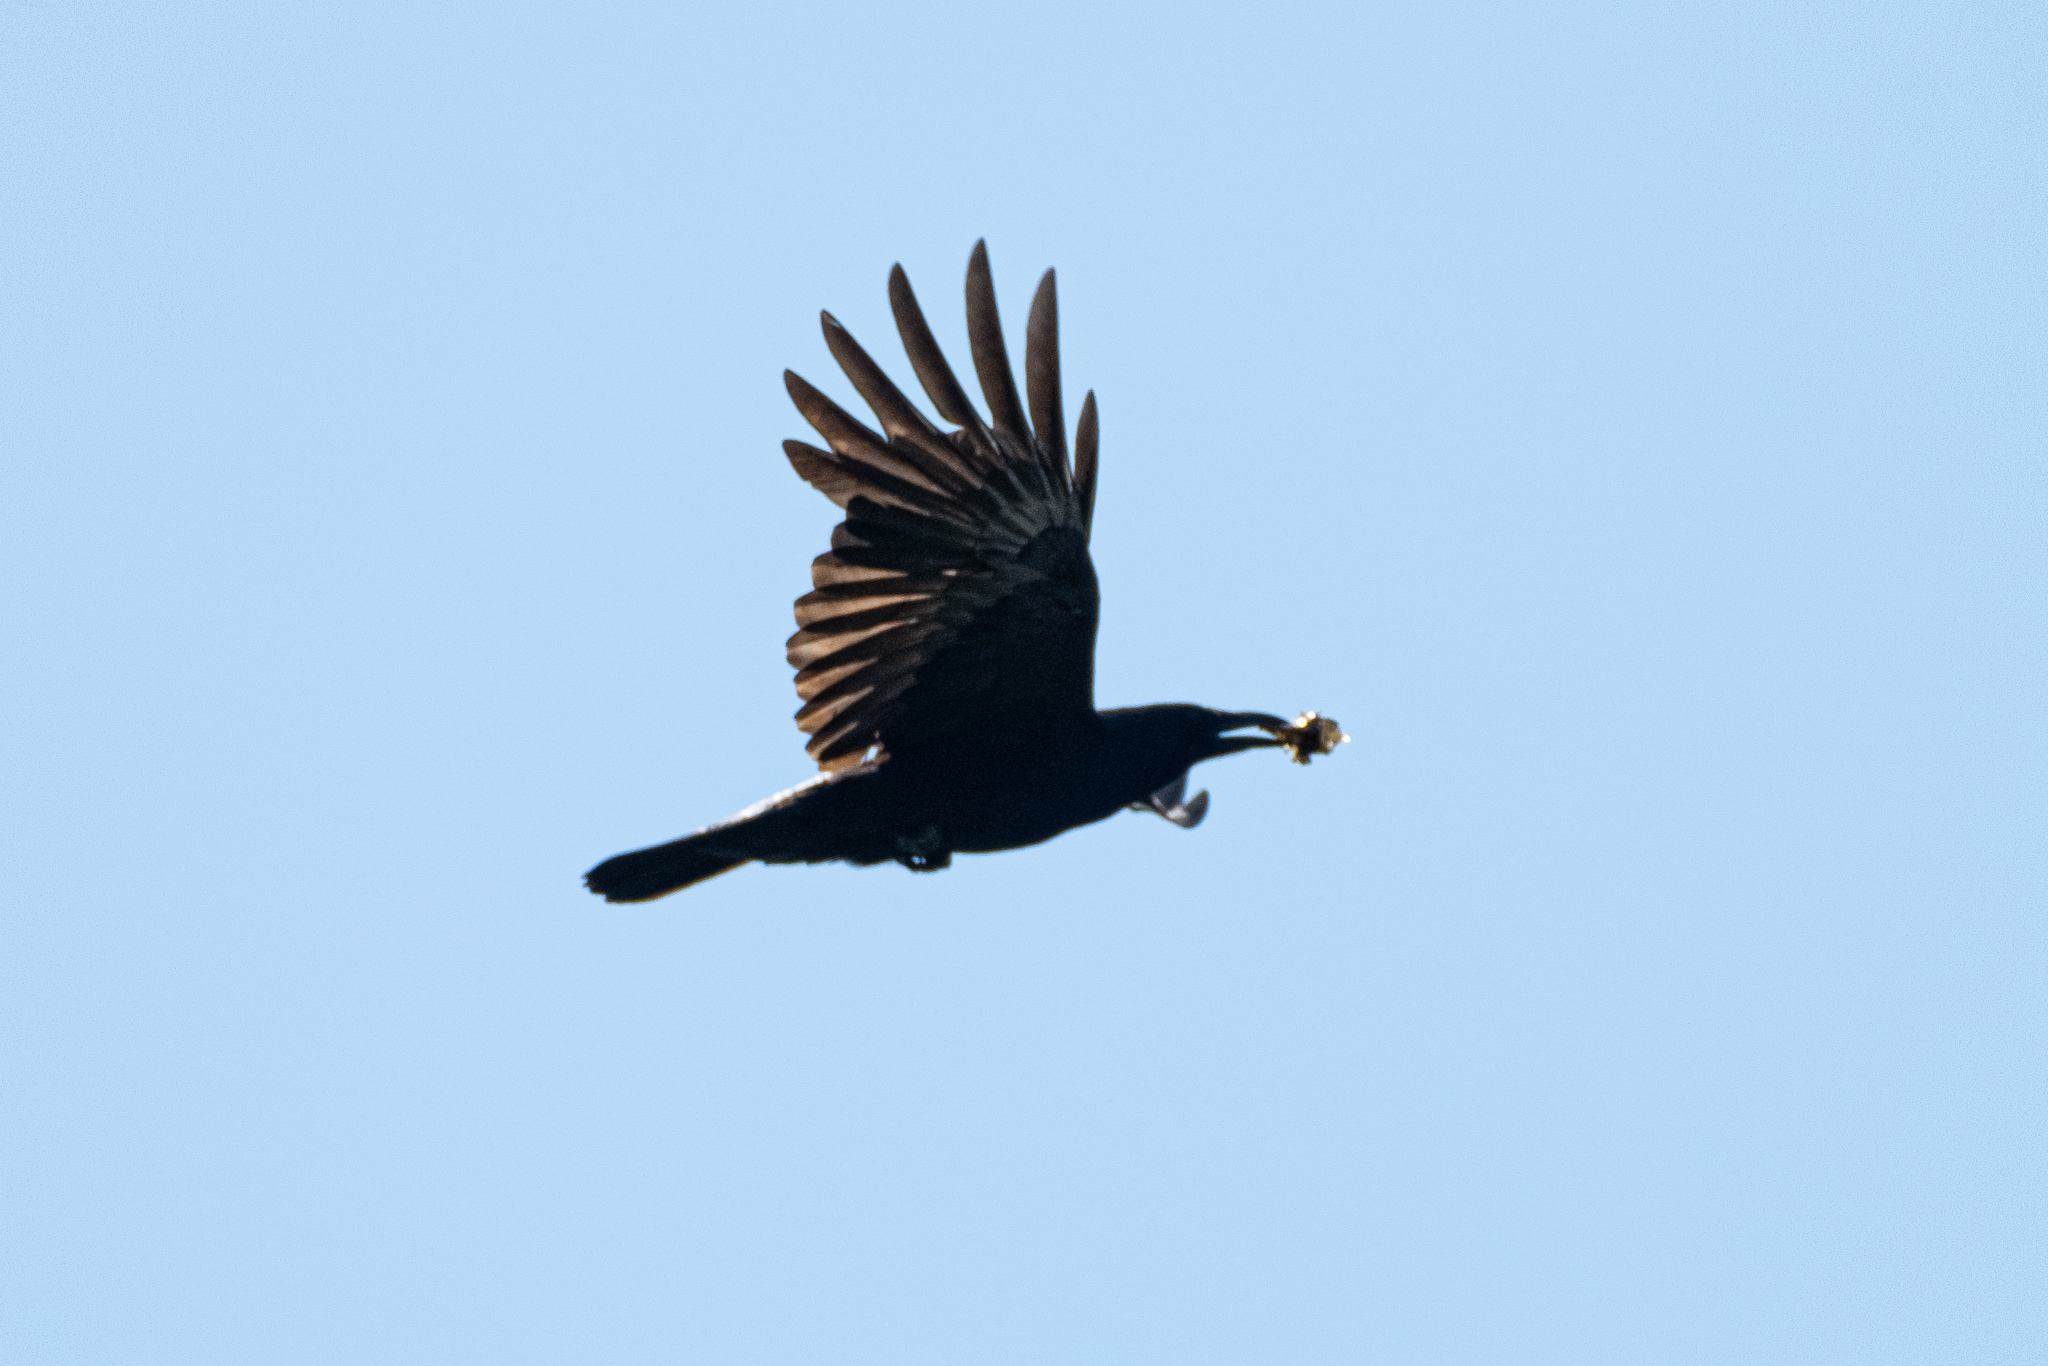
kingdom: Animalia
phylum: Chordata
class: Aves
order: Passeriformes
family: Corvidae
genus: Corvus
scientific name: Corvus corone
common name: Carrion crow
